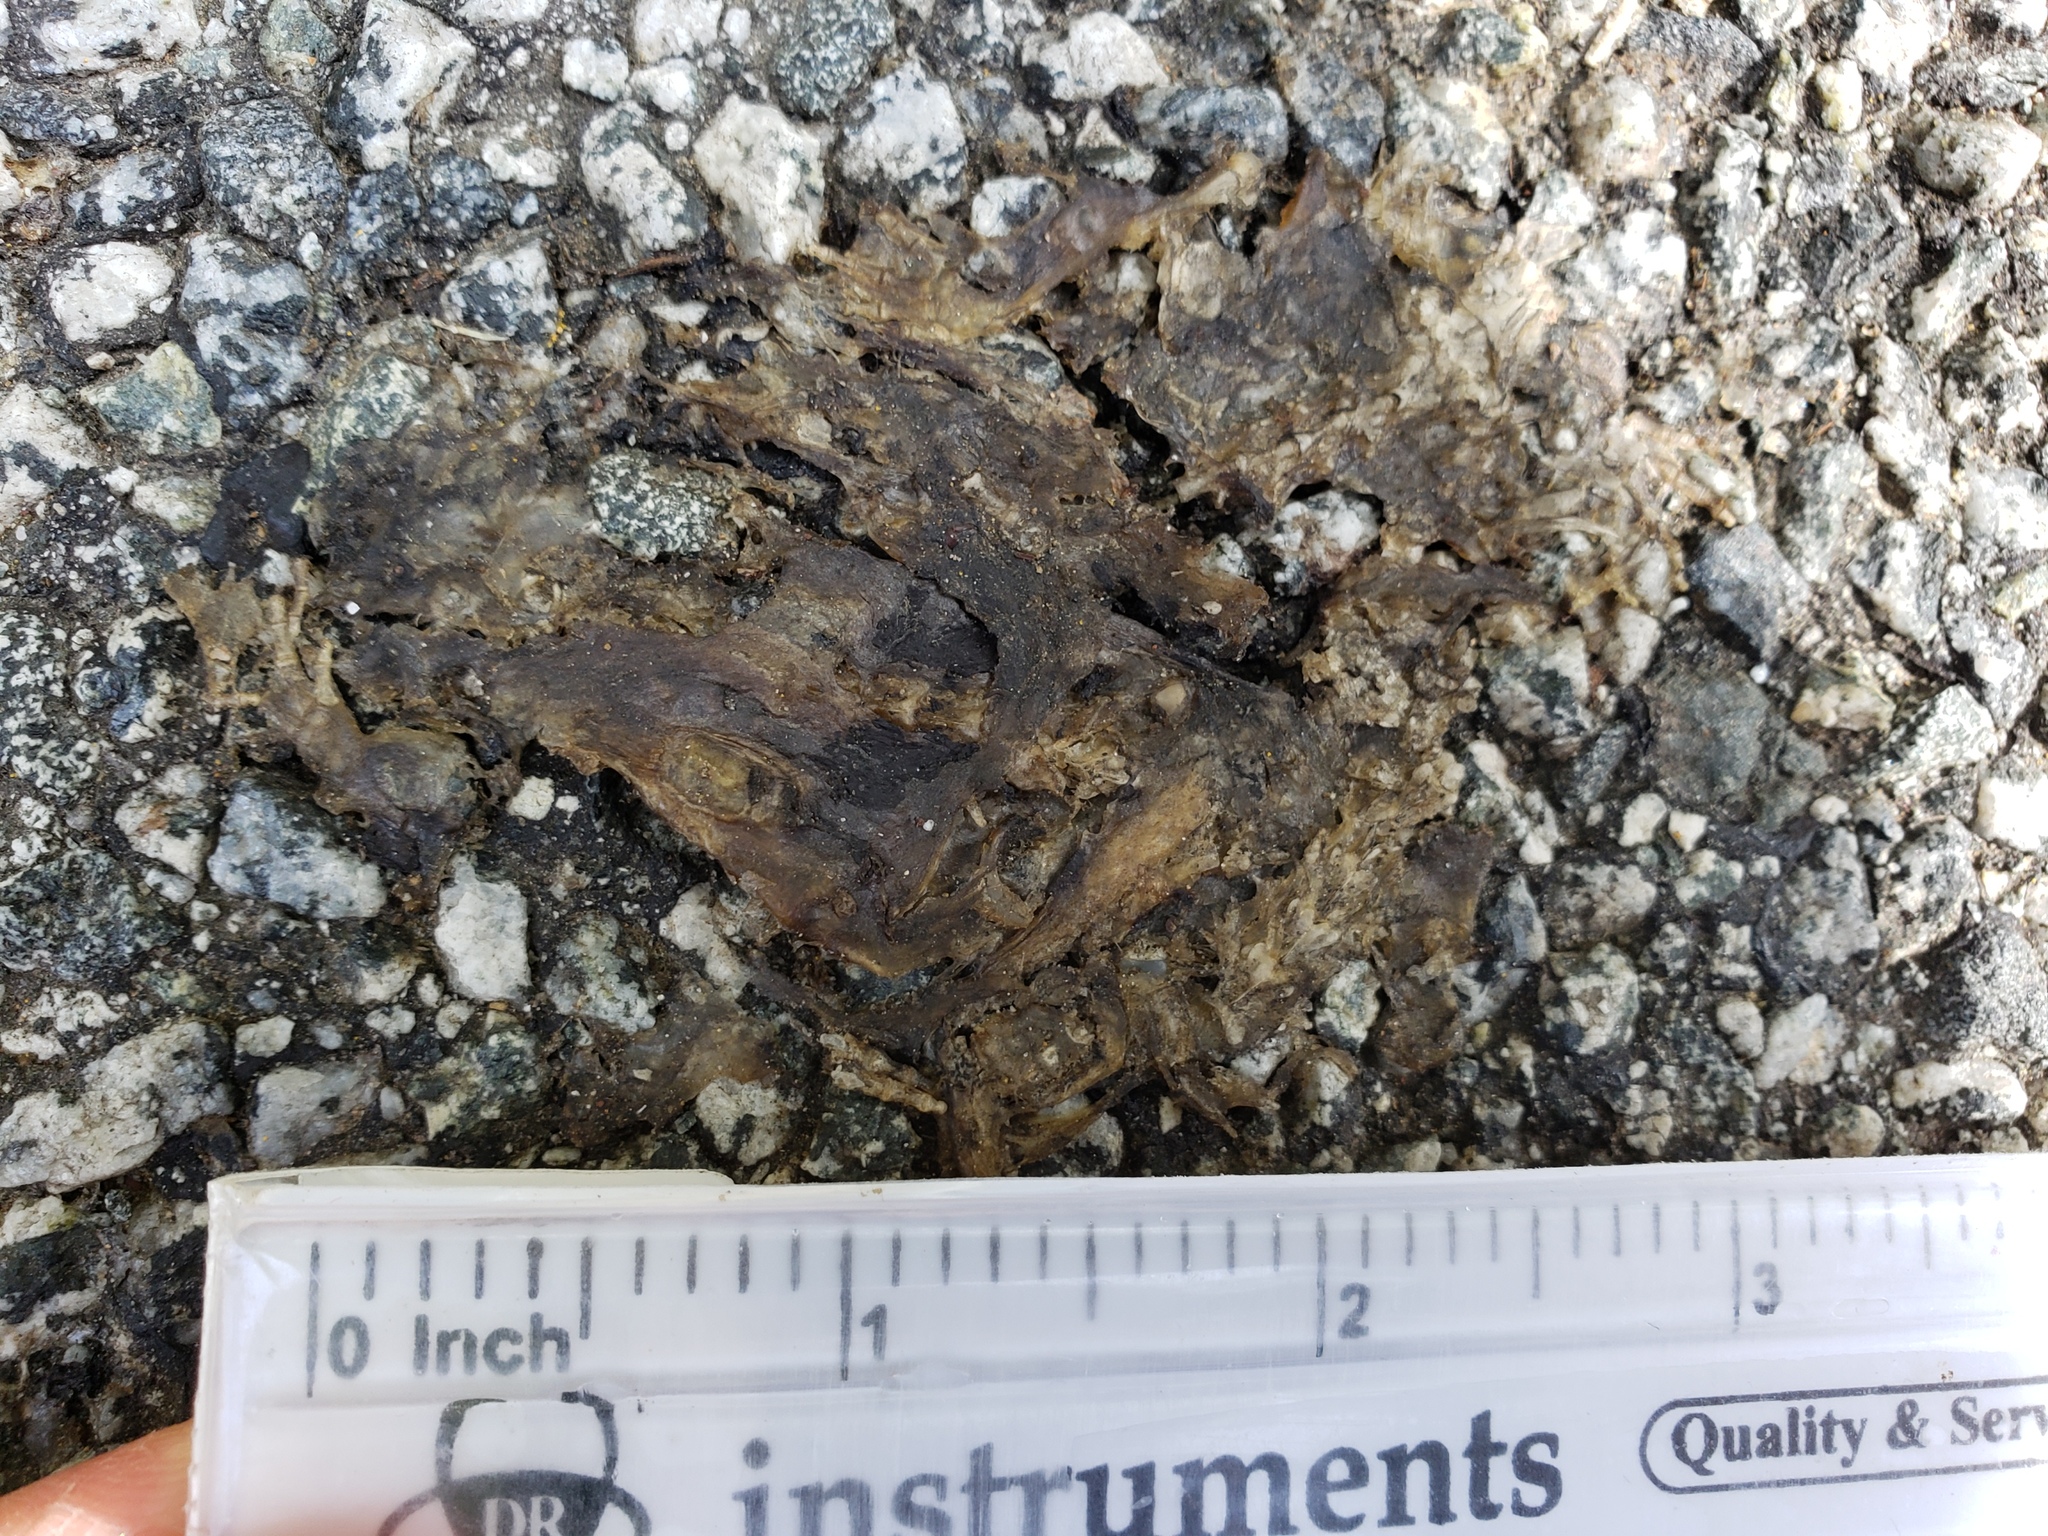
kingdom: Animalia
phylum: Chordata
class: Amphibia
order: Caudata
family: Salamandridae
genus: Taricha
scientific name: Taricha
